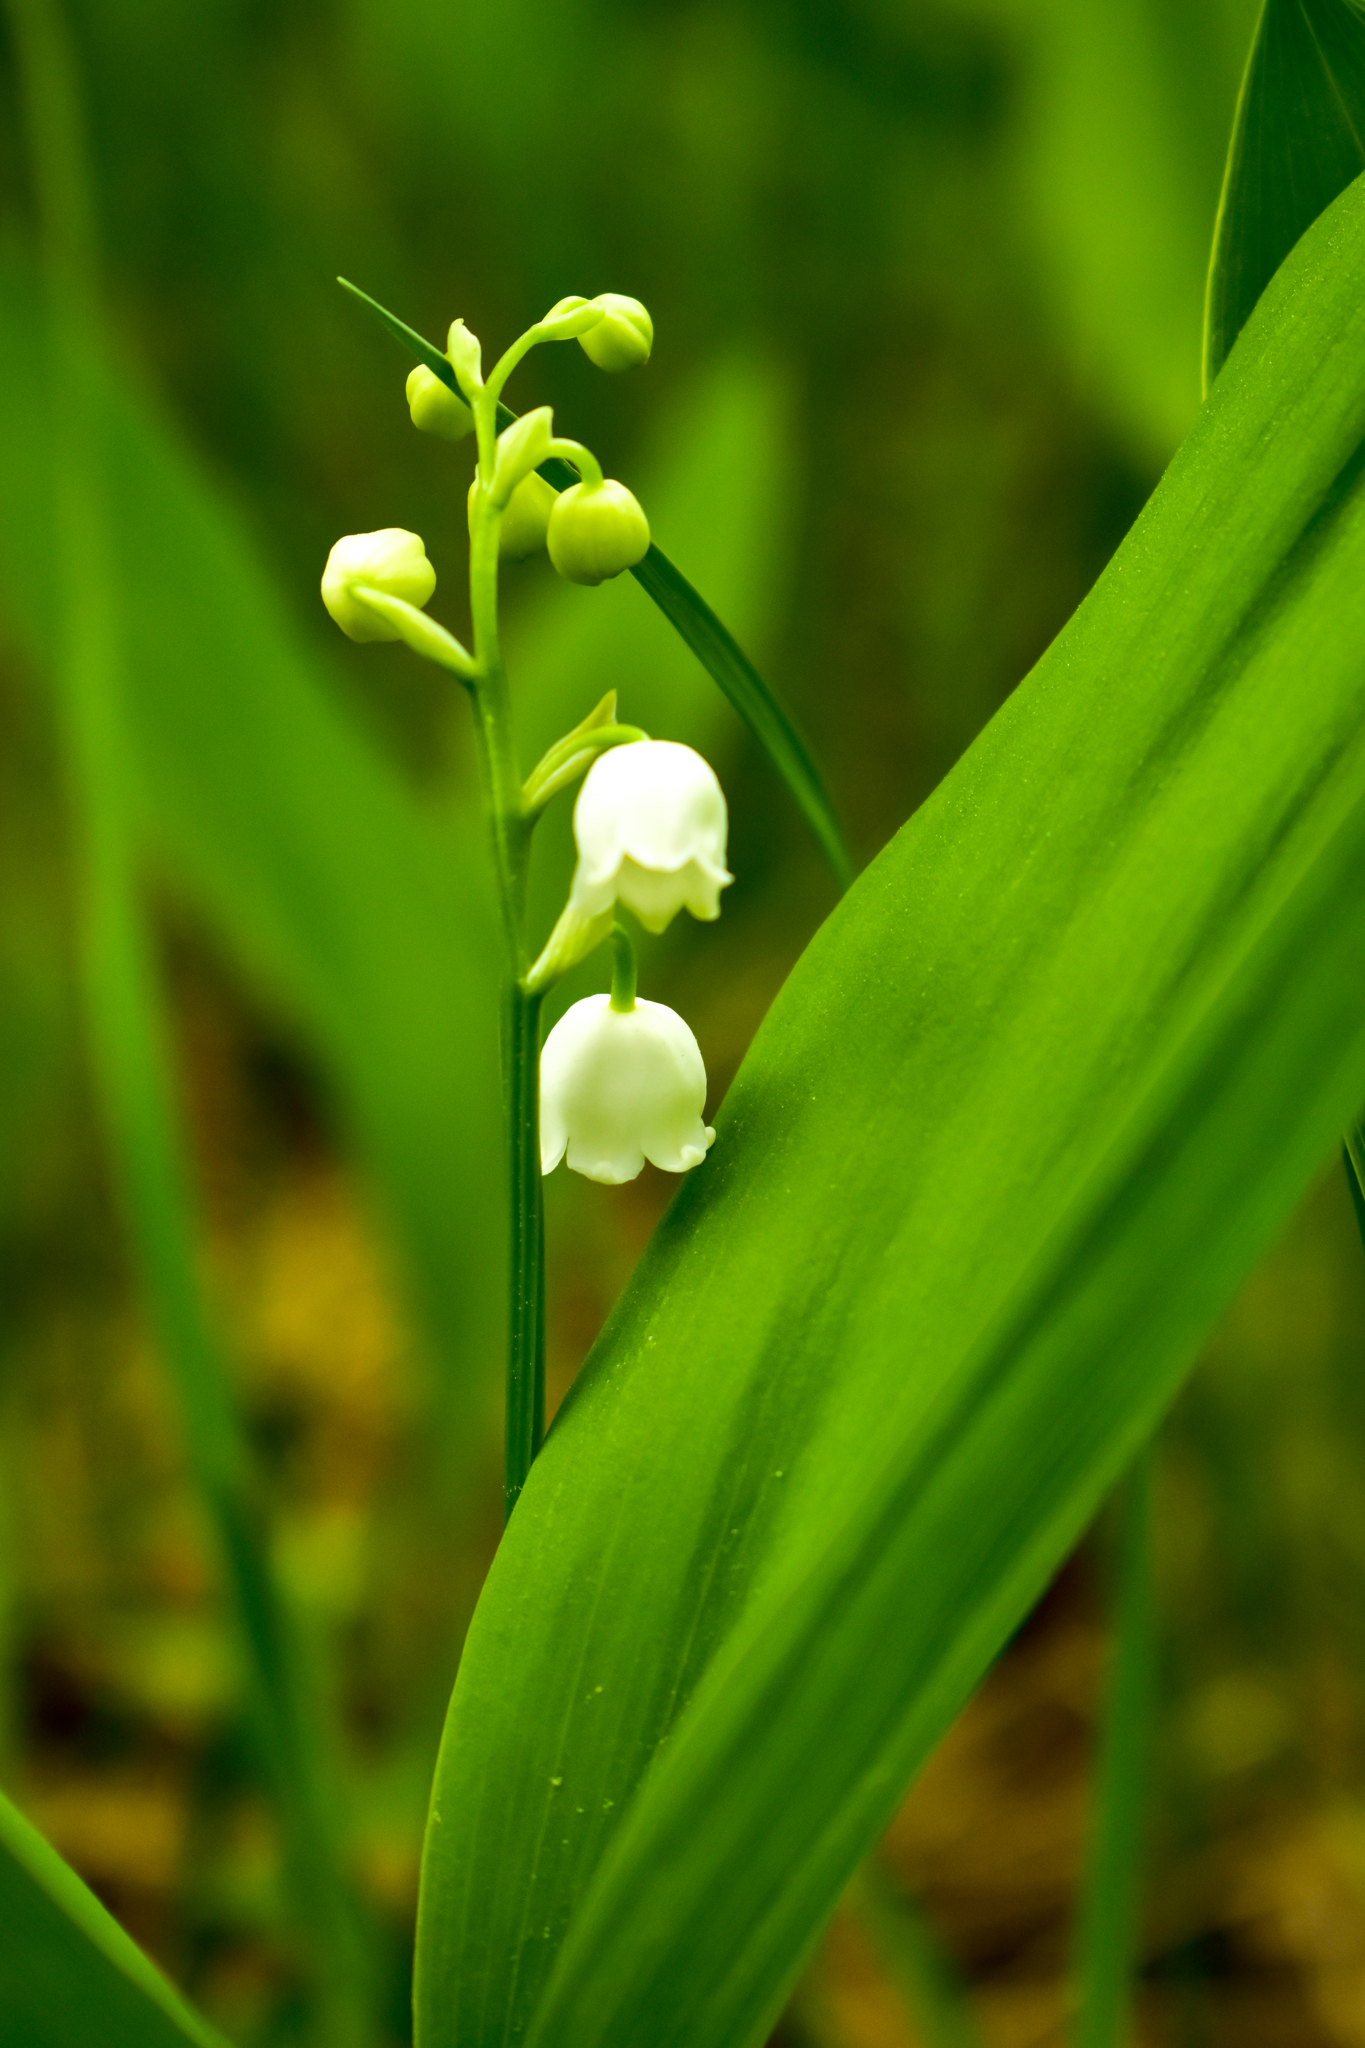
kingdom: Plantae
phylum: Tracheophyta
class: Liliopsida
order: Asparagales
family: Asparagaceae
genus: Convallaria
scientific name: Convallaria majalis
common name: Lily-of-the-valley
